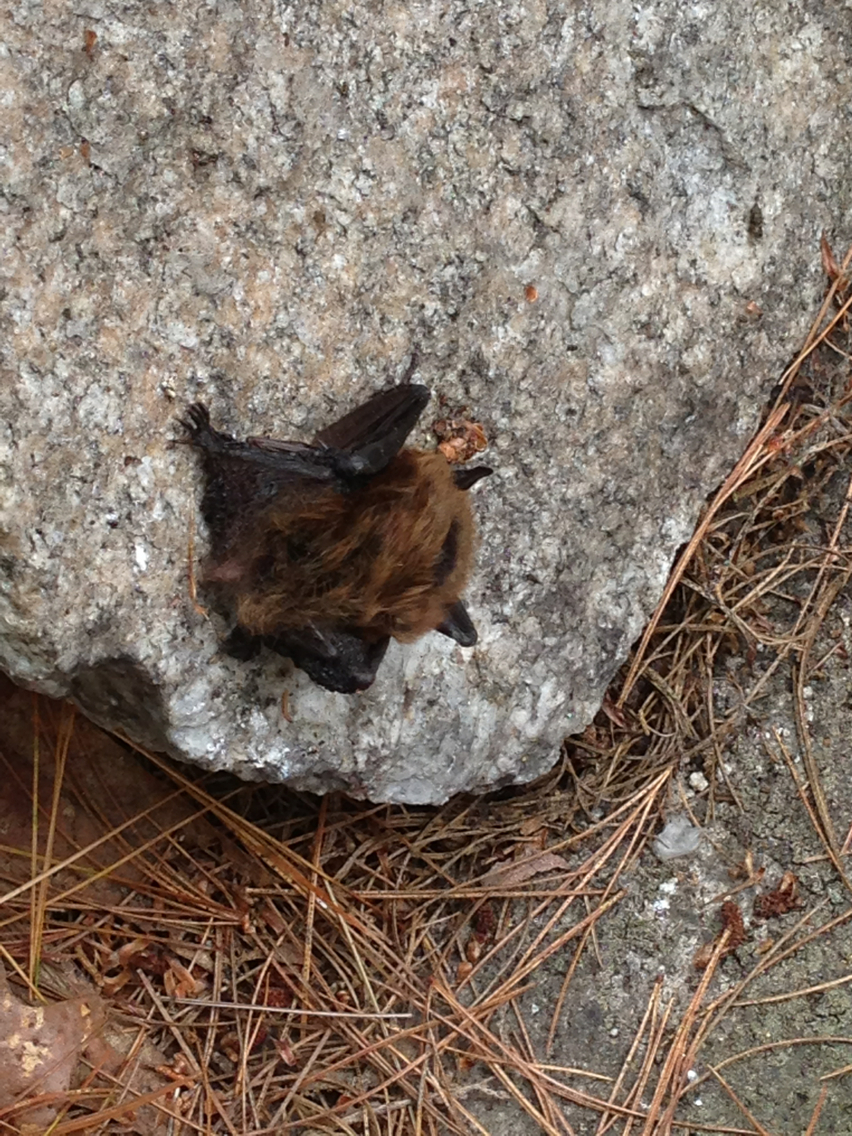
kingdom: Animalia
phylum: Chordata
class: Mammalia
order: Chiroptera
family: Vespertilionidae
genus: Myotis
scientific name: Myotis leibii
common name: Eastern small-footed myotis
